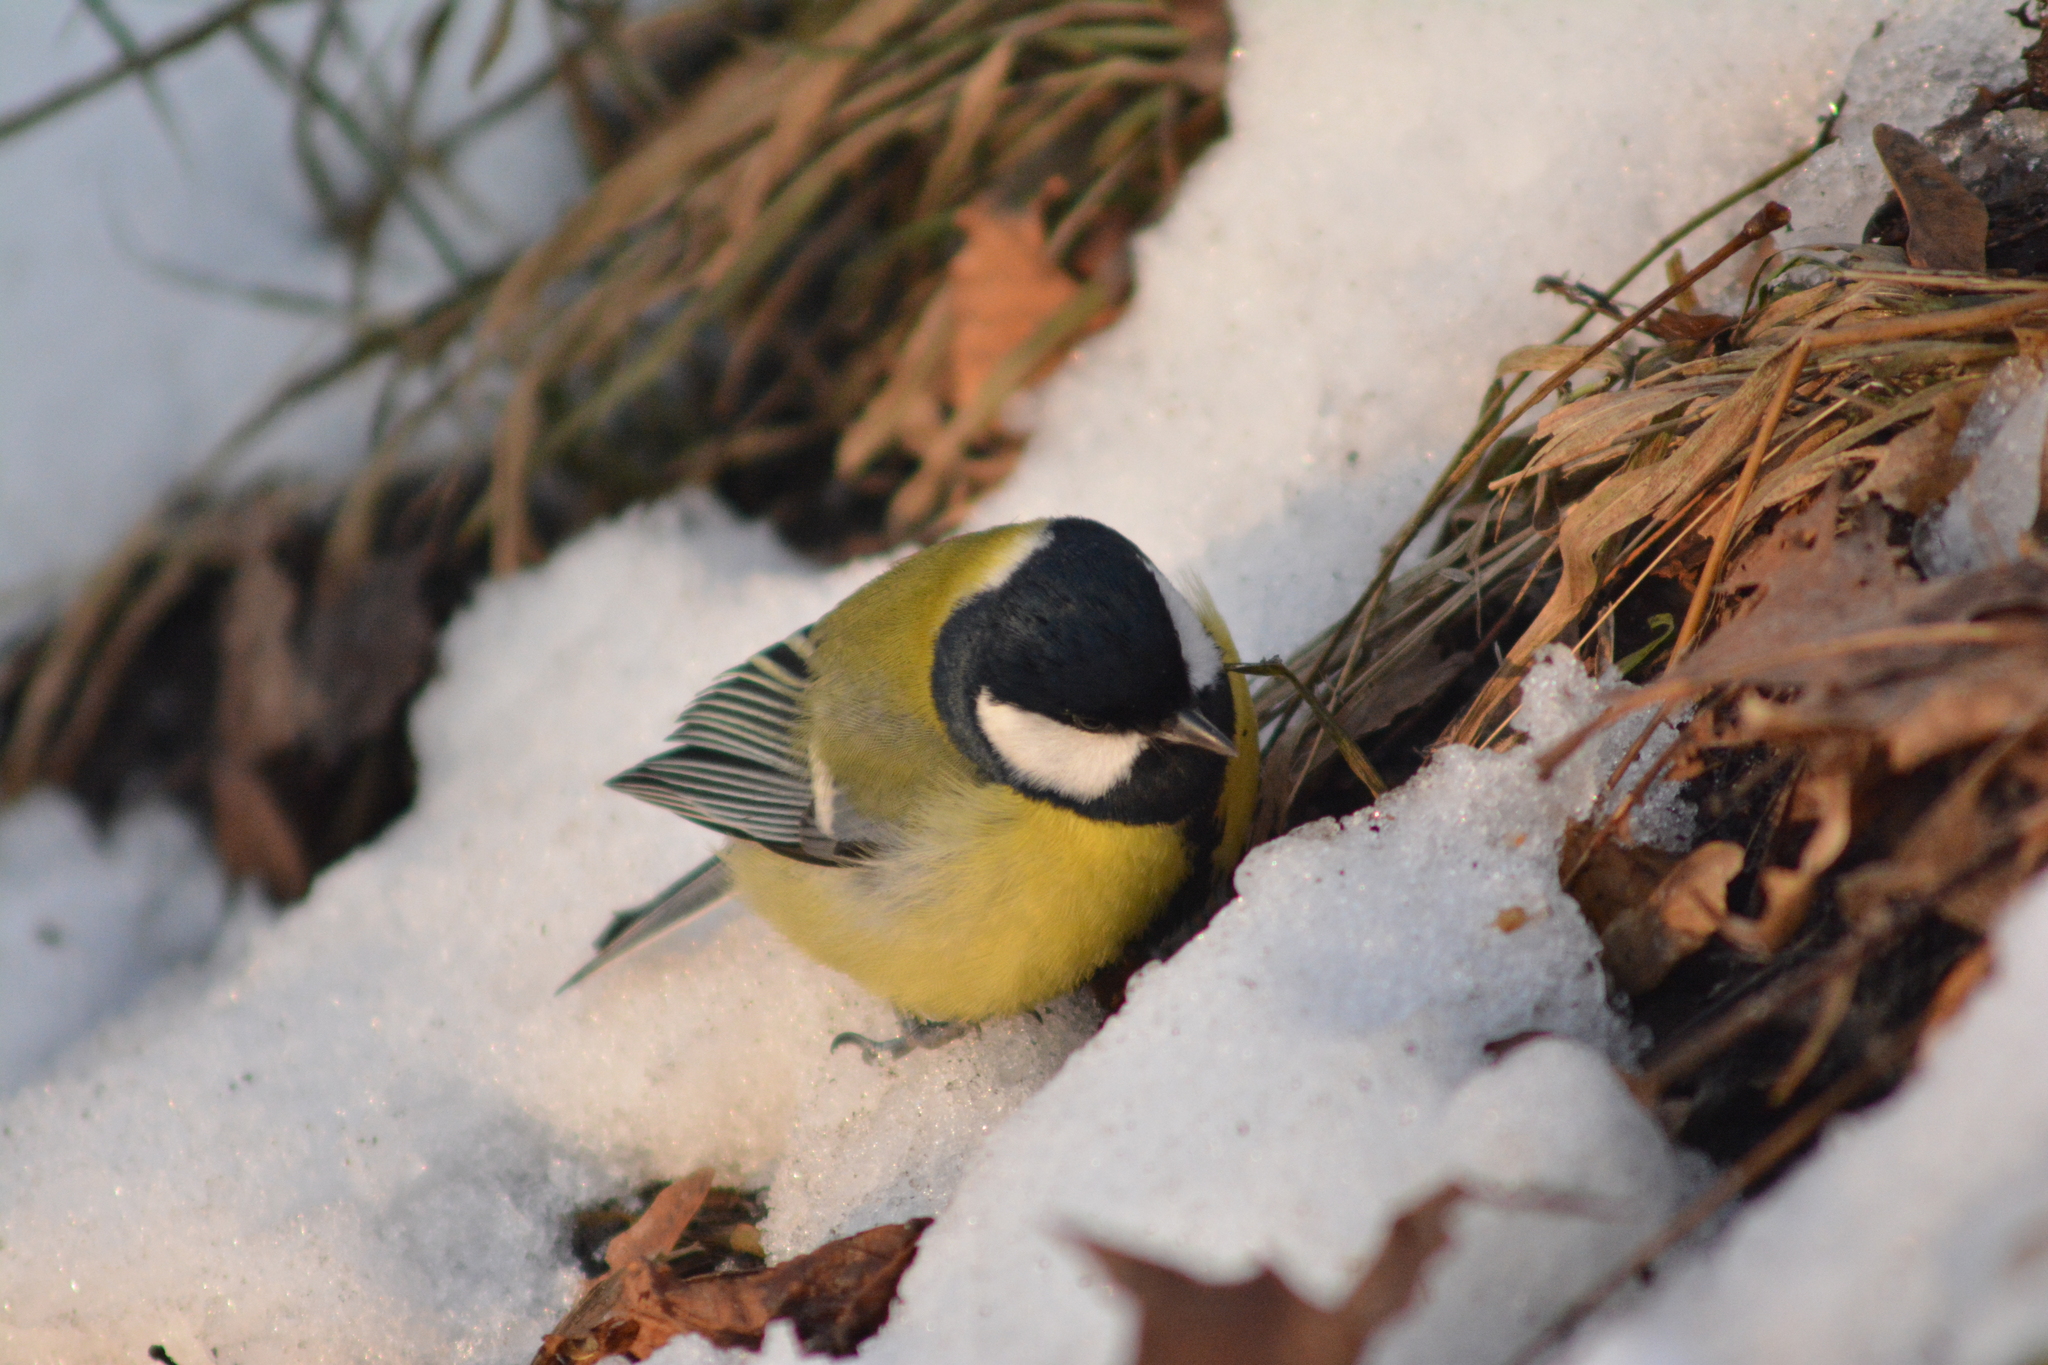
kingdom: Animalia
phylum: Chordata
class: Aves
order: Passeriformes
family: Paridae
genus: Parus
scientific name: Parus major
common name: Great tit
